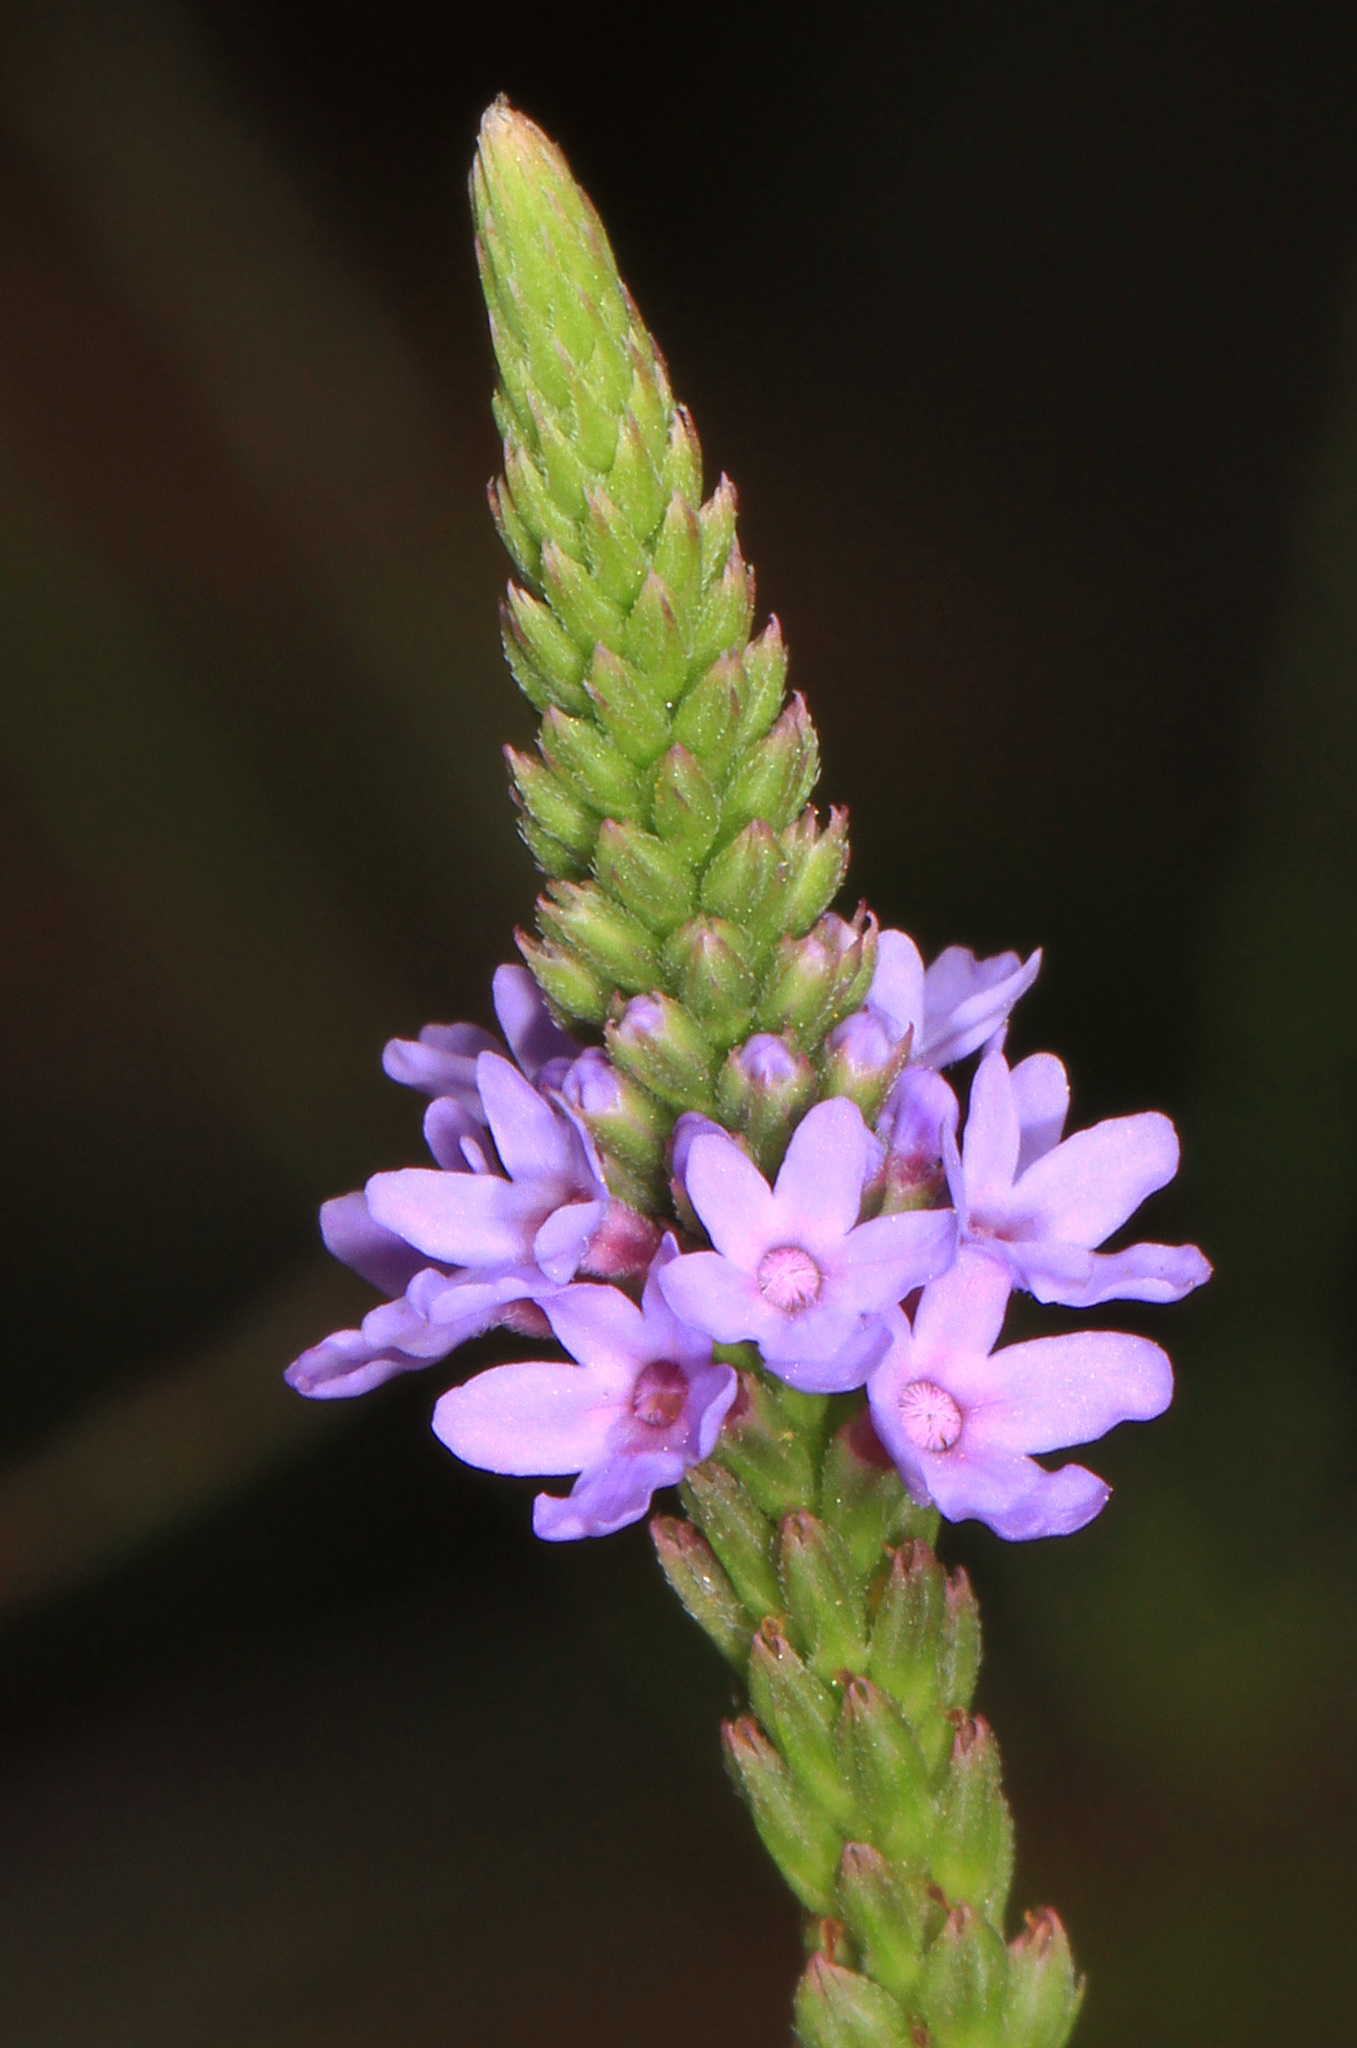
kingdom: Plantae
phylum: Tracheophyta
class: Magnoliopsida
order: Lamiales
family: Verbenaceae
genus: Verbena
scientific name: Verbena hastata
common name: American blue vervain
